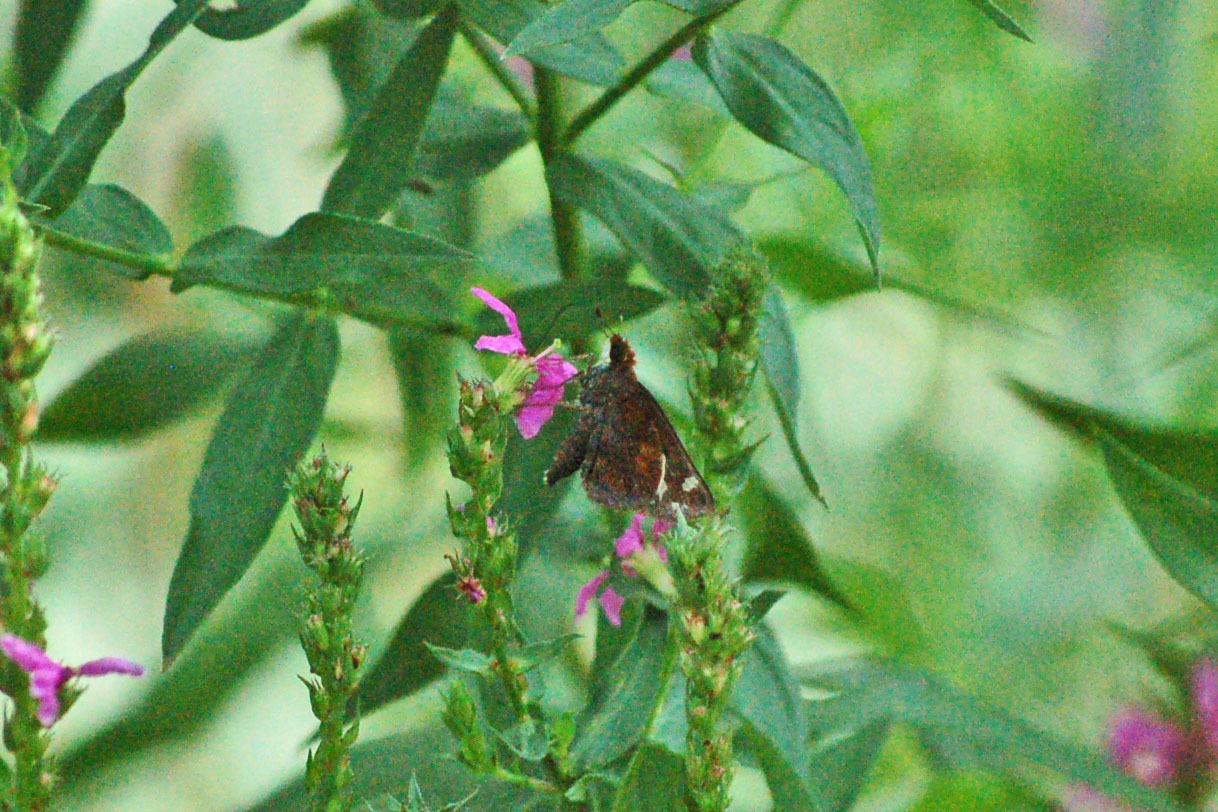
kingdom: Animalia
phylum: Arthropoda
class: Insecta
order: Lepidoptera
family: Hesperiidae
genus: Lon
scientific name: Lon zabulon
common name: Zabulon skipper
